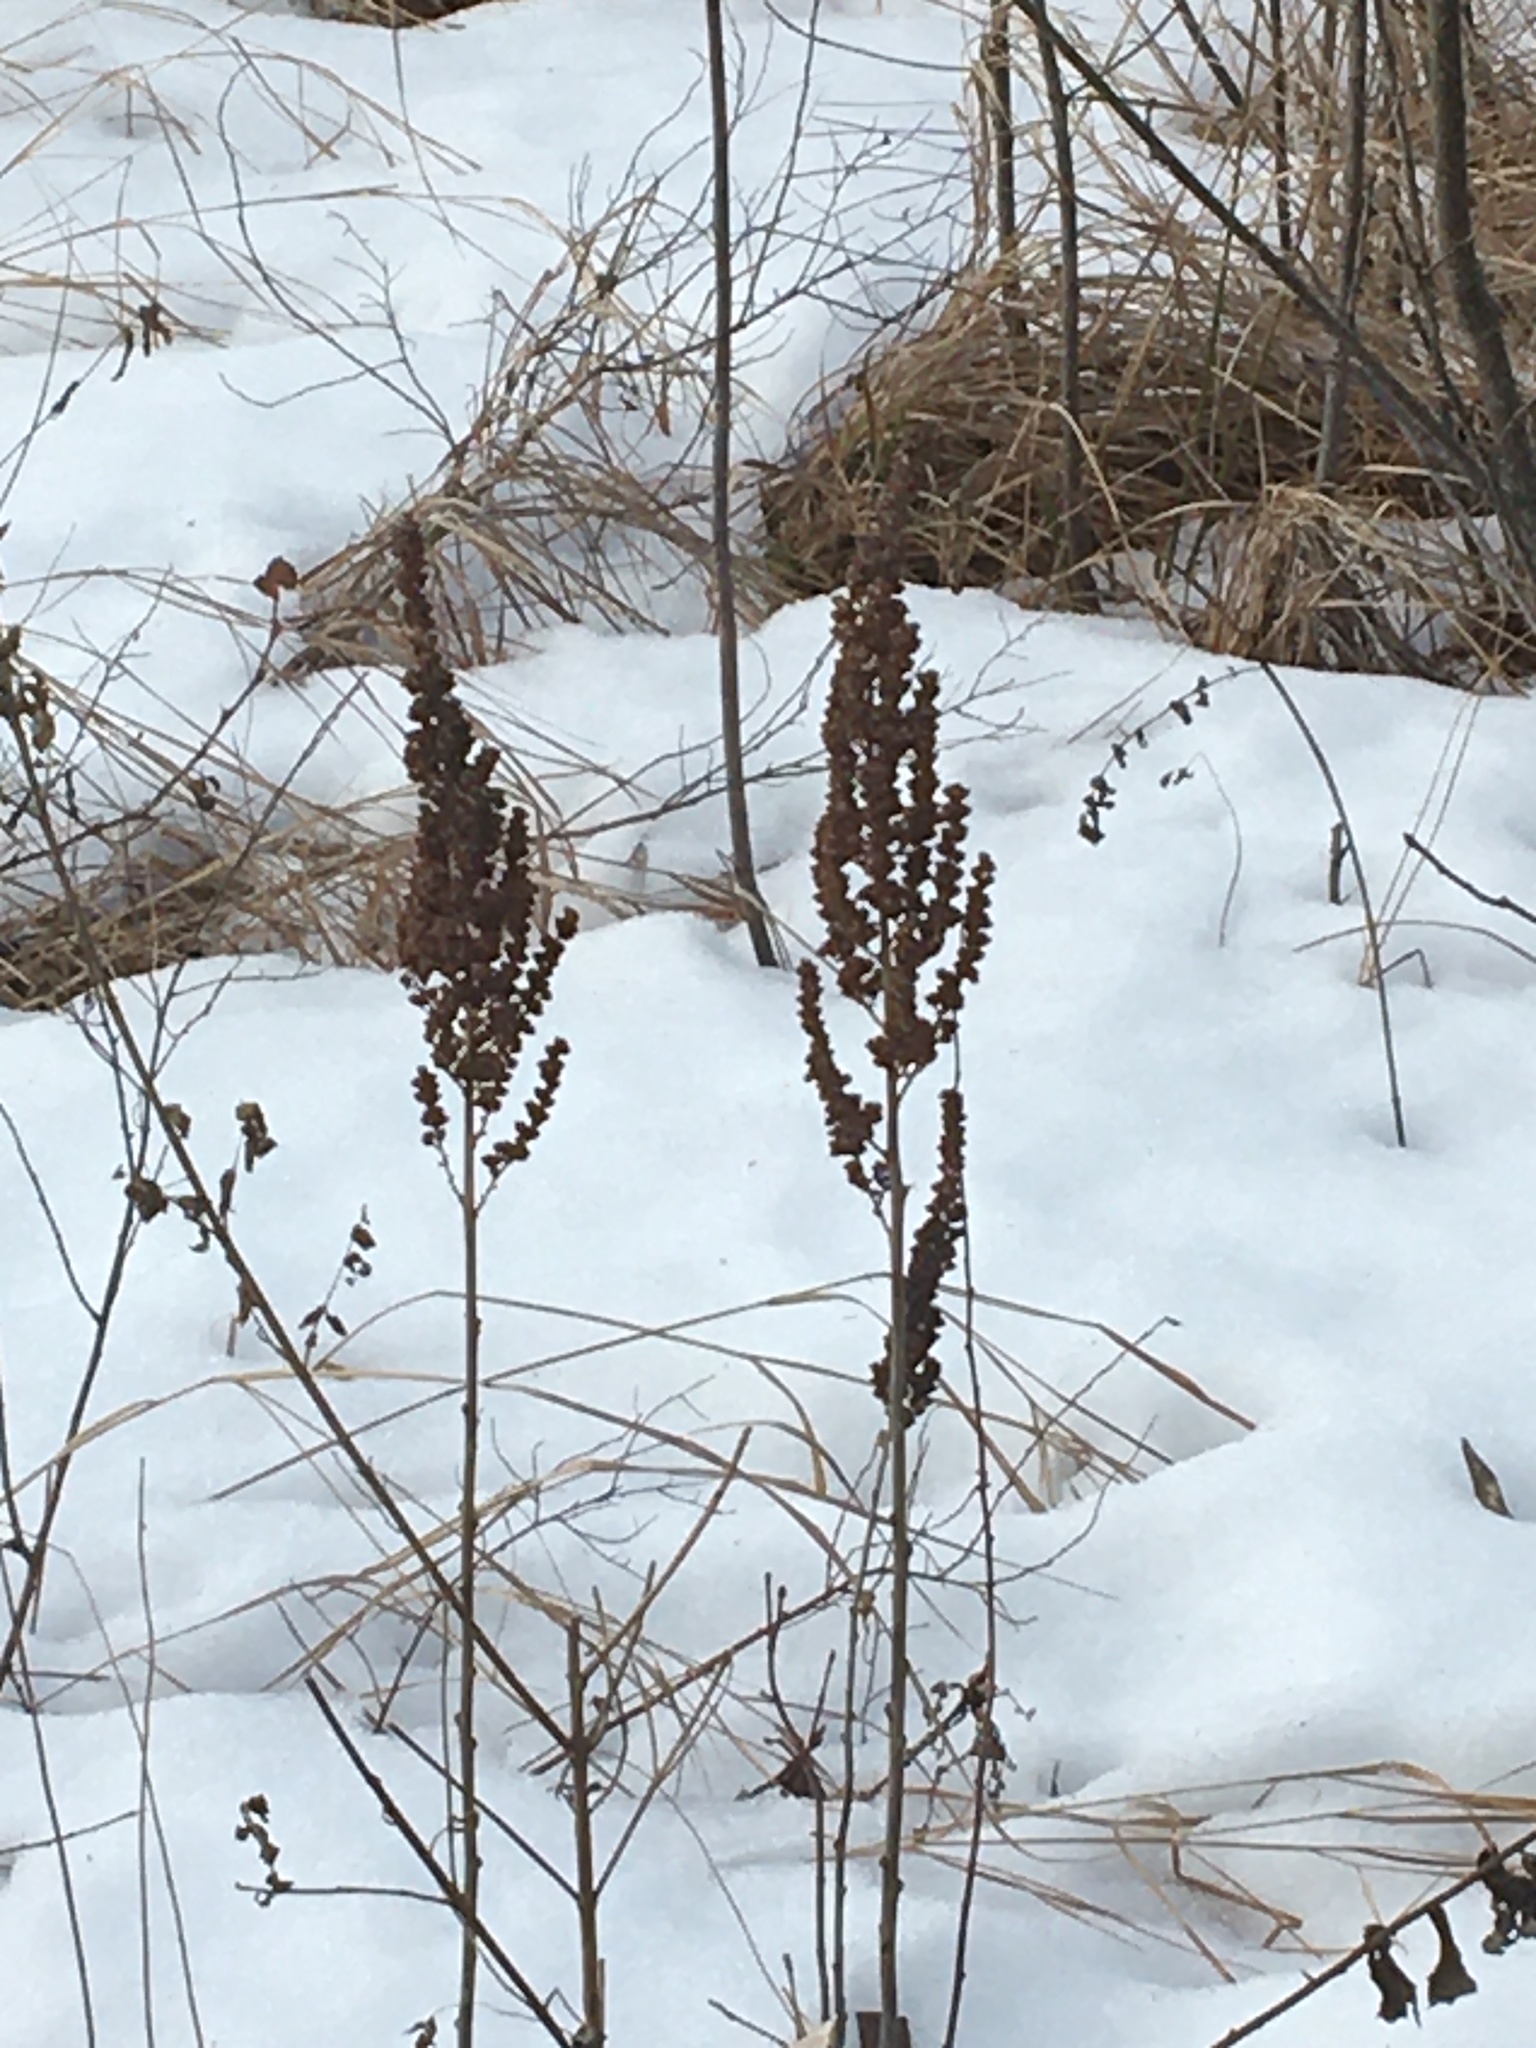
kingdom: Plantae
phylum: Tracheophyta
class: Magnoliopsida
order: Rosales
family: Rosaceae
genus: Spiraea
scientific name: Spiraea tomentosa
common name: Hardhack
